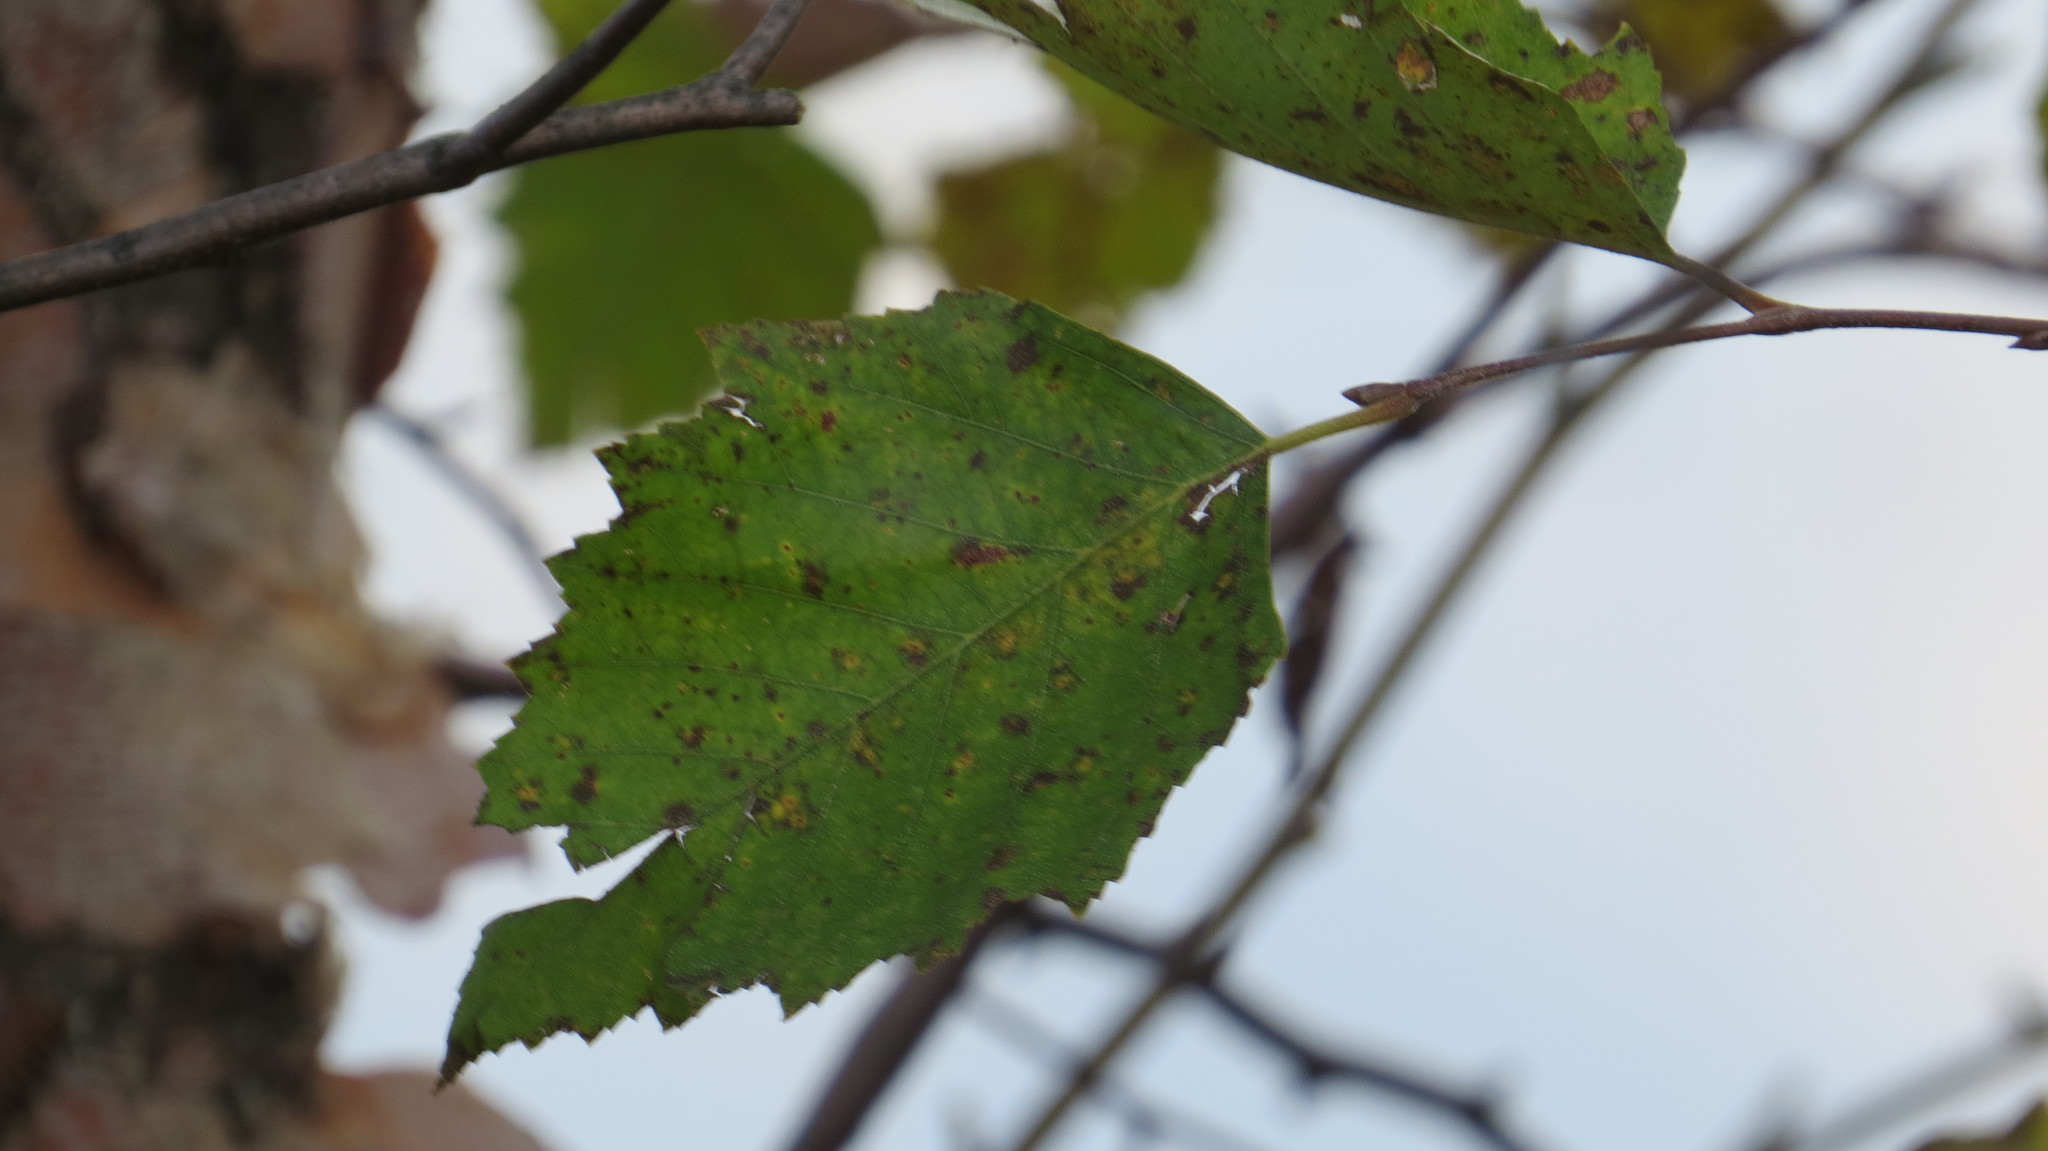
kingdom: Plantae
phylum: Tracheophyta
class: Magnoliopsida
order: Fagales
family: Betulaceae
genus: Betula
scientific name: Betula nigra
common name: Black birch
